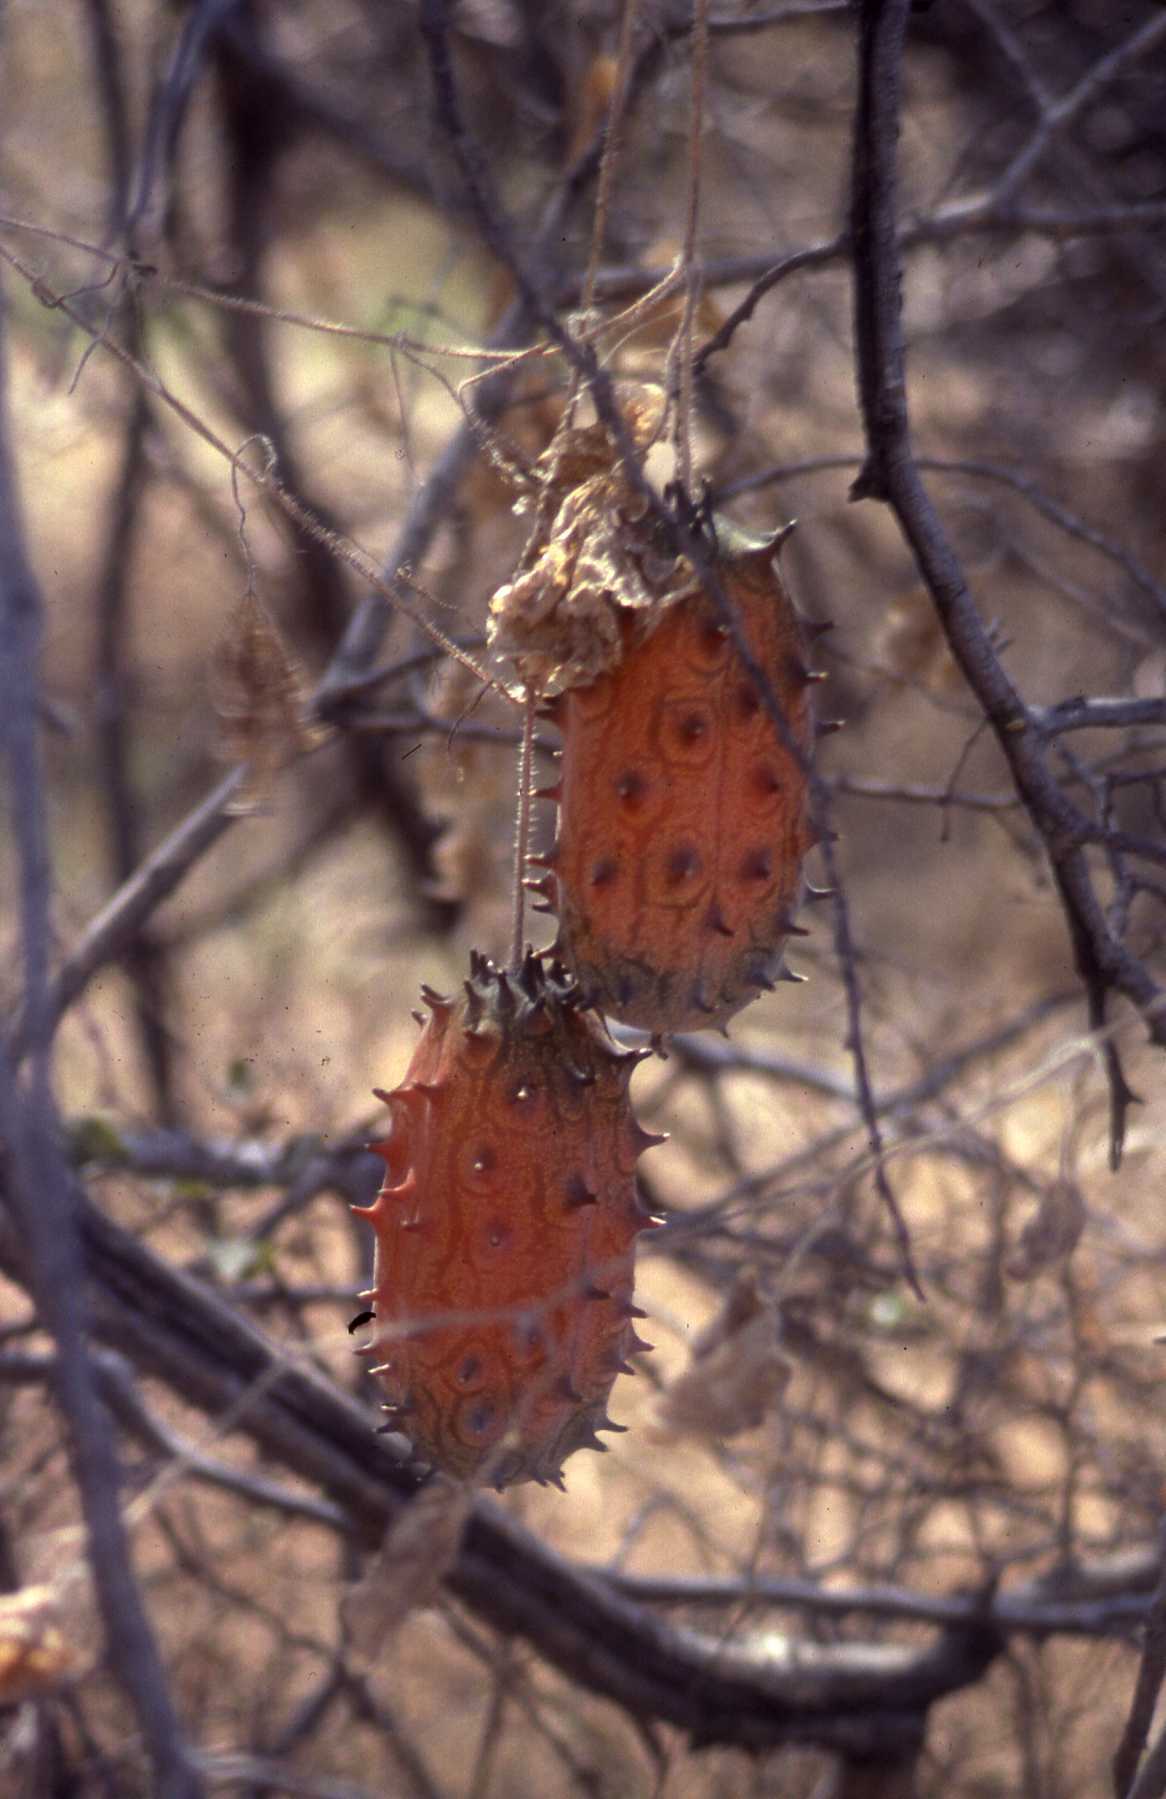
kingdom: Plantae
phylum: Tracheophyta
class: Magnoliopsida
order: Cucurbitales
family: Cucurbitaceae
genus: Cucumis
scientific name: Cucumis metuliferus
